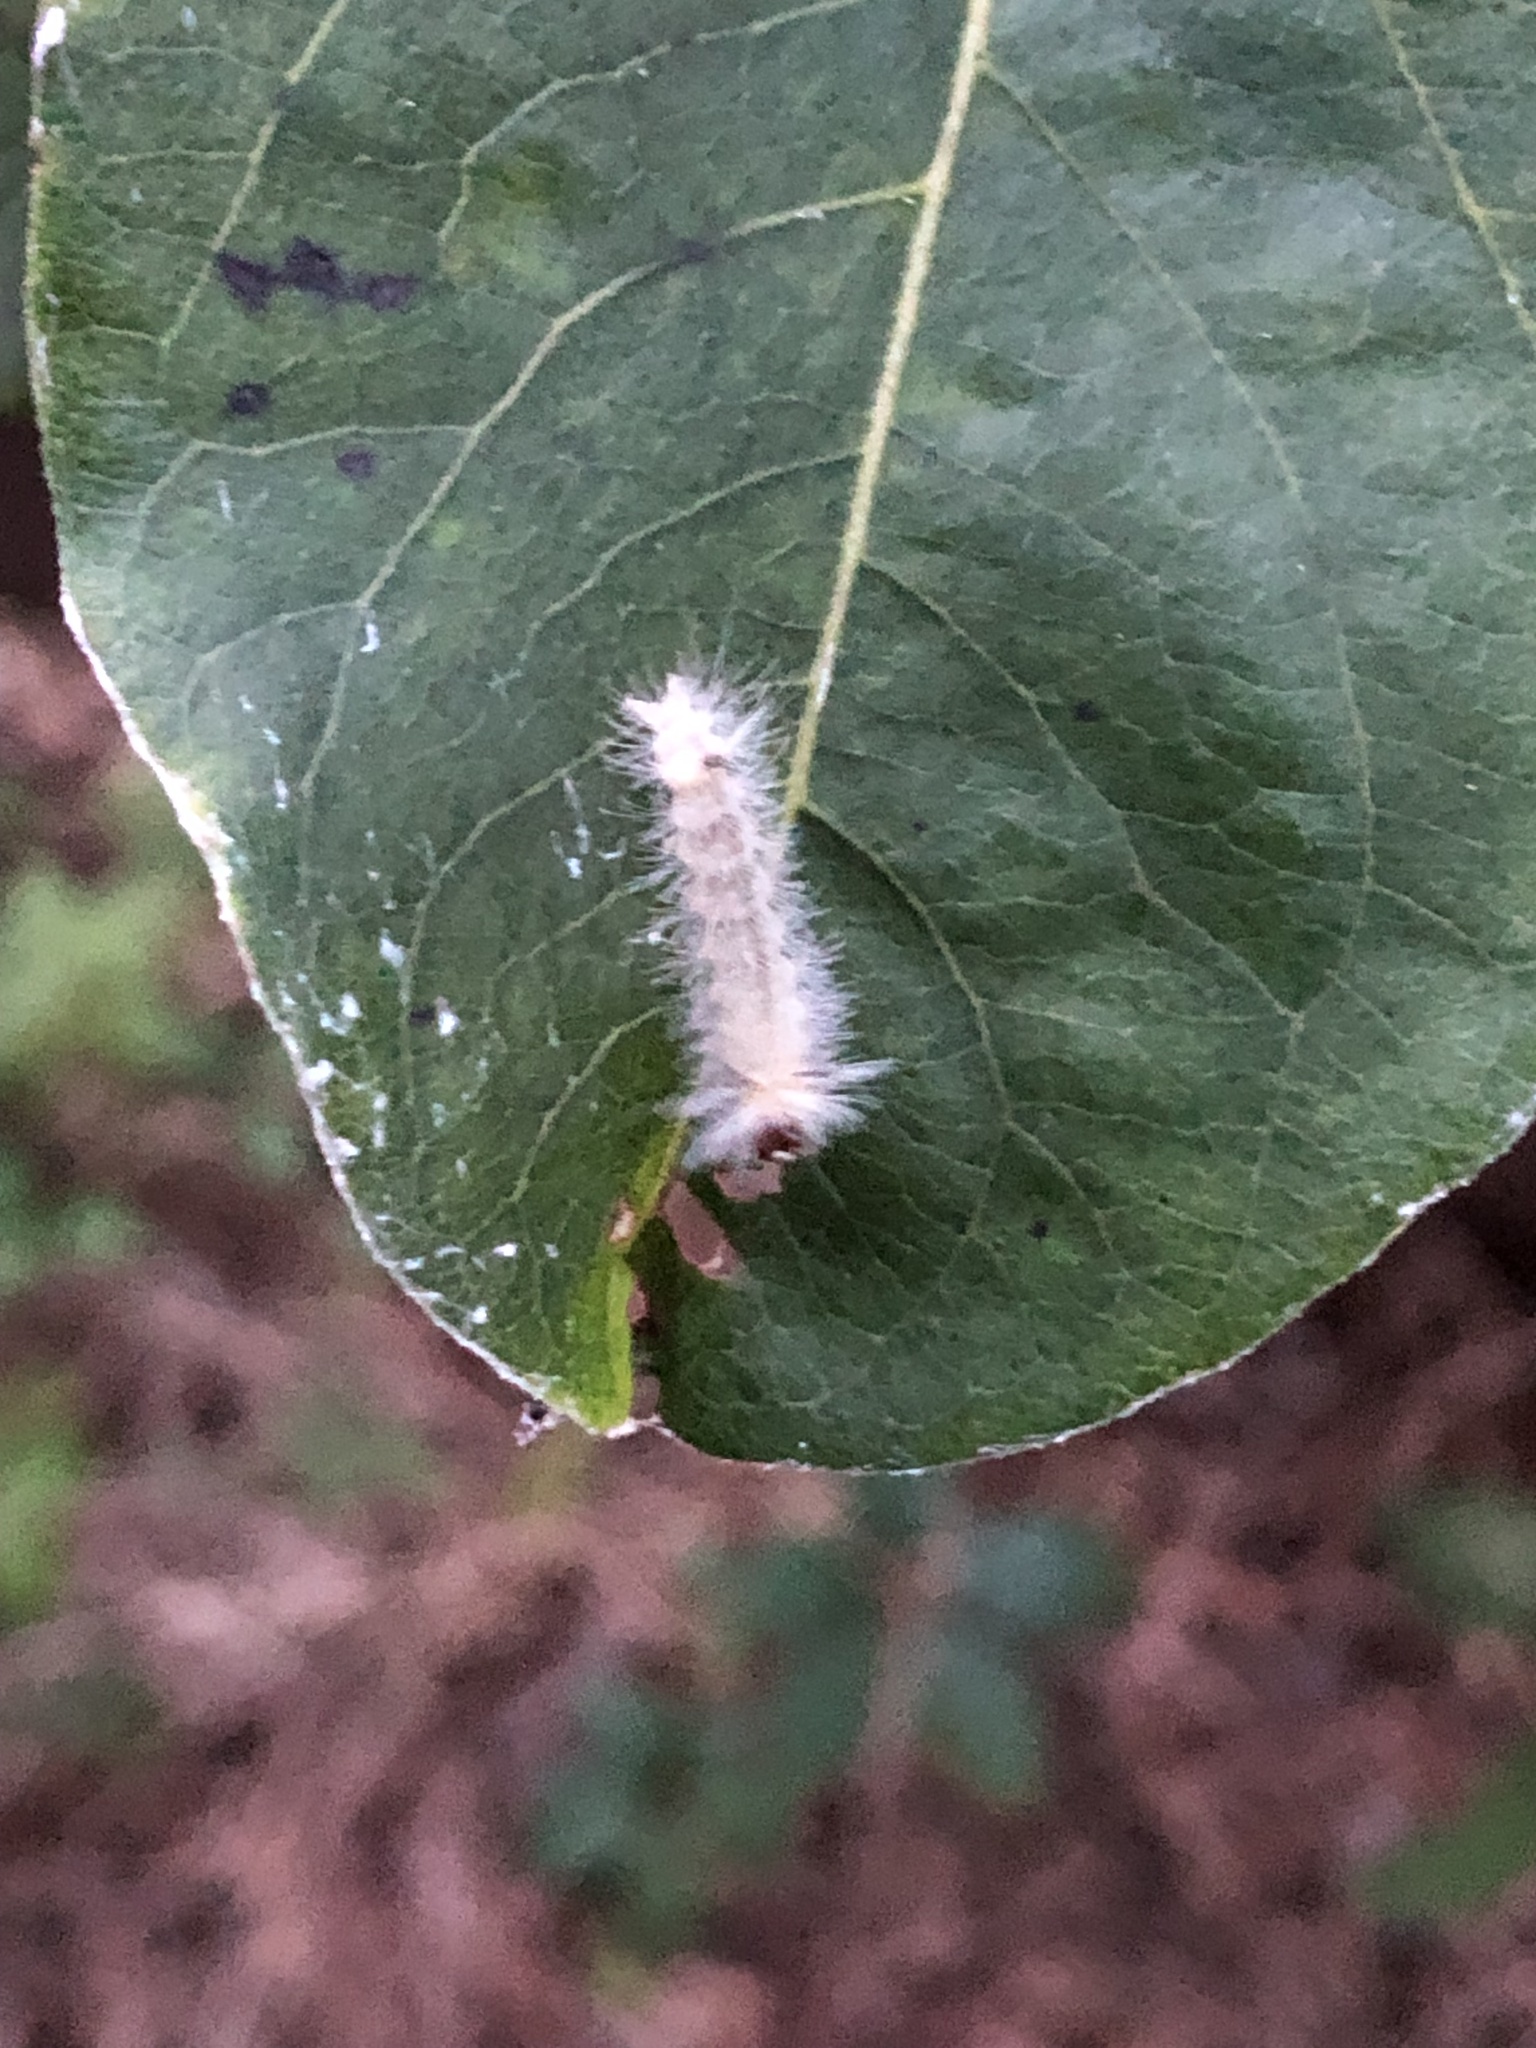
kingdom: Animalia
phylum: Arthropoda
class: Insecta
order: Lepidoptera
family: Erebidae
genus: Halysidota
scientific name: Halysidota tessellaris
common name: Banded tussock moth
